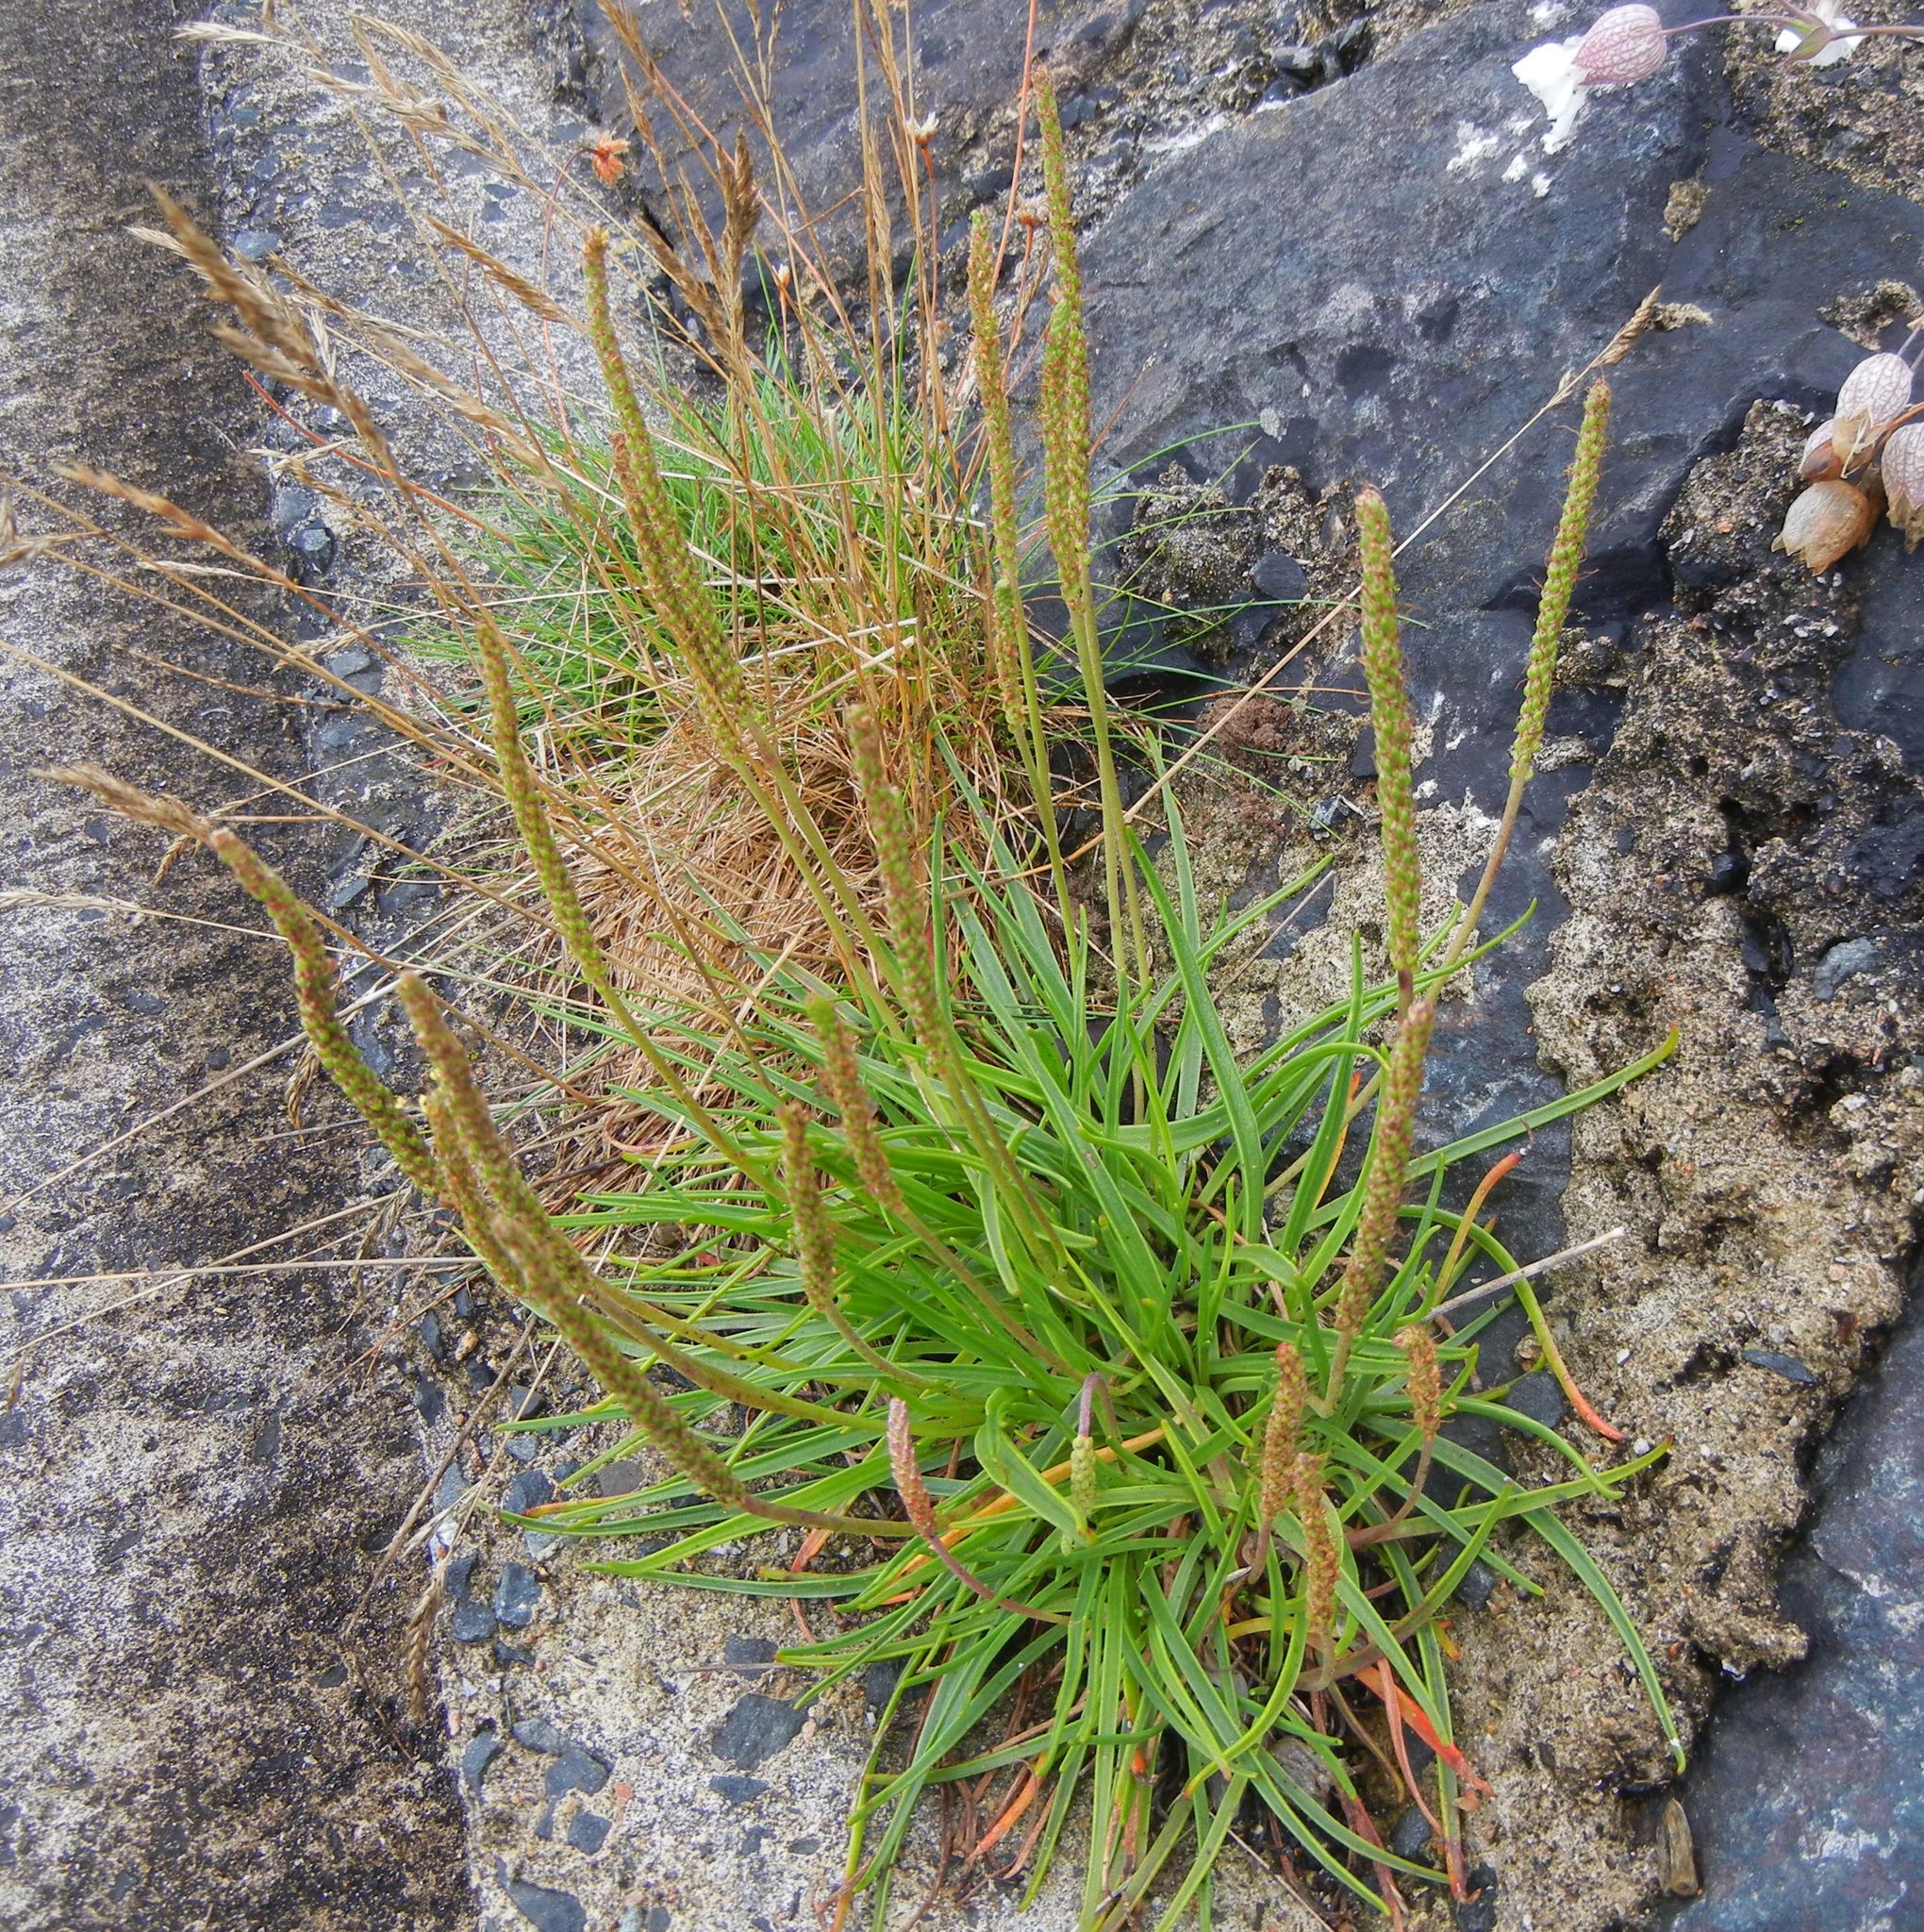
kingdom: Plantae
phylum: Tracheophyta
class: Magnoliopsida
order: Lamiales
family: Plantaginaceae
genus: Plantago
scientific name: Plantago maritima
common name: Sea plantain
